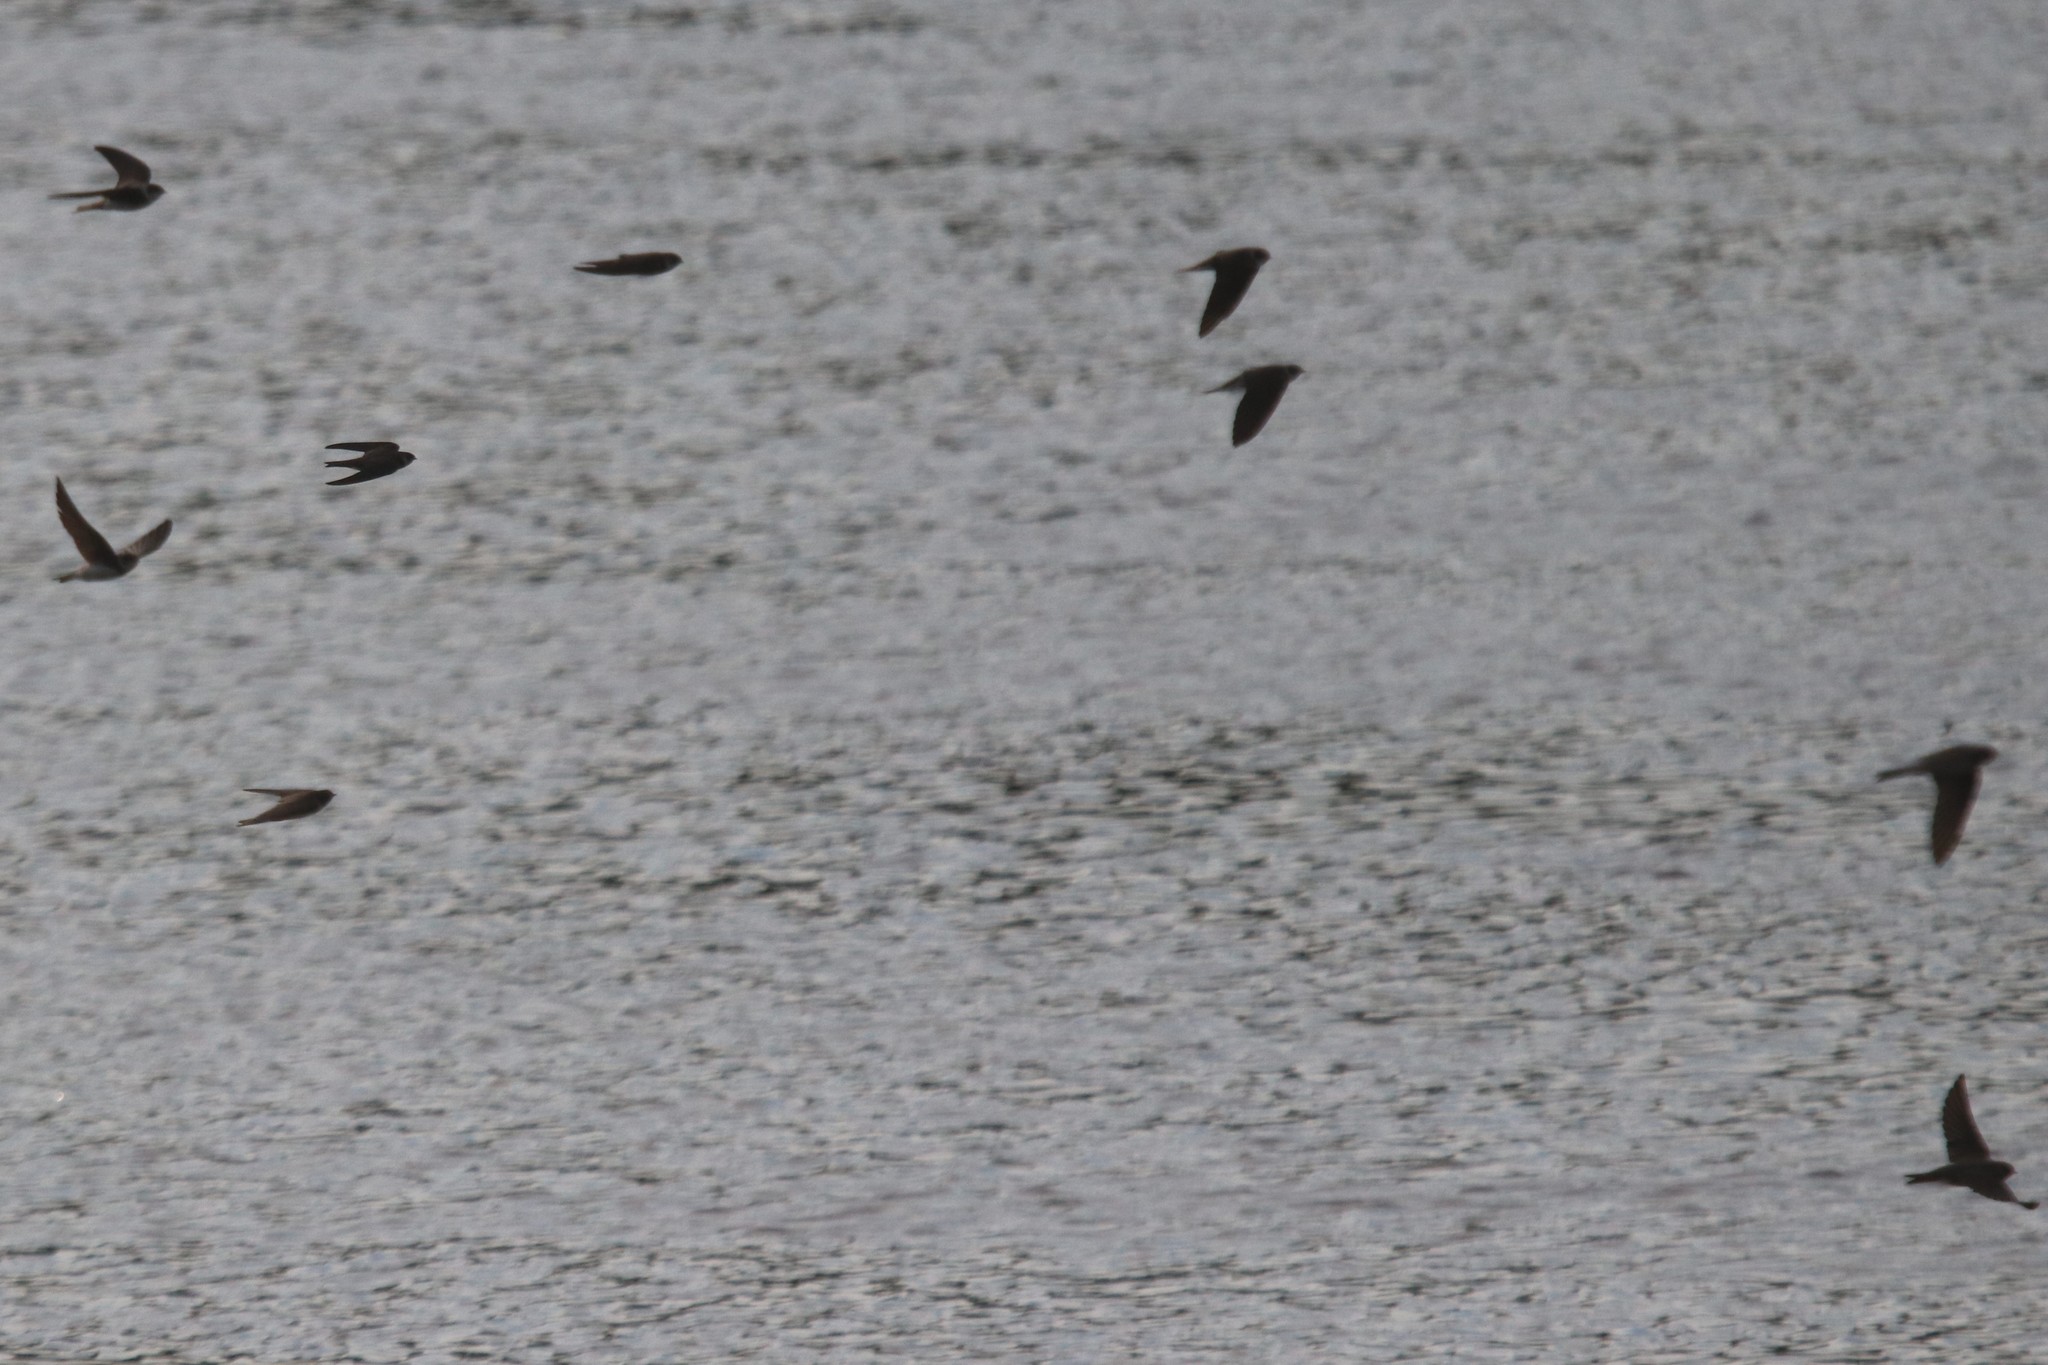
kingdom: Animalia
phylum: Chordata
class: Aves
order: Passeriformes
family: Hirundinidae
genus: Riparia
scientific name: Riparia riparia
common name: Sand martin
